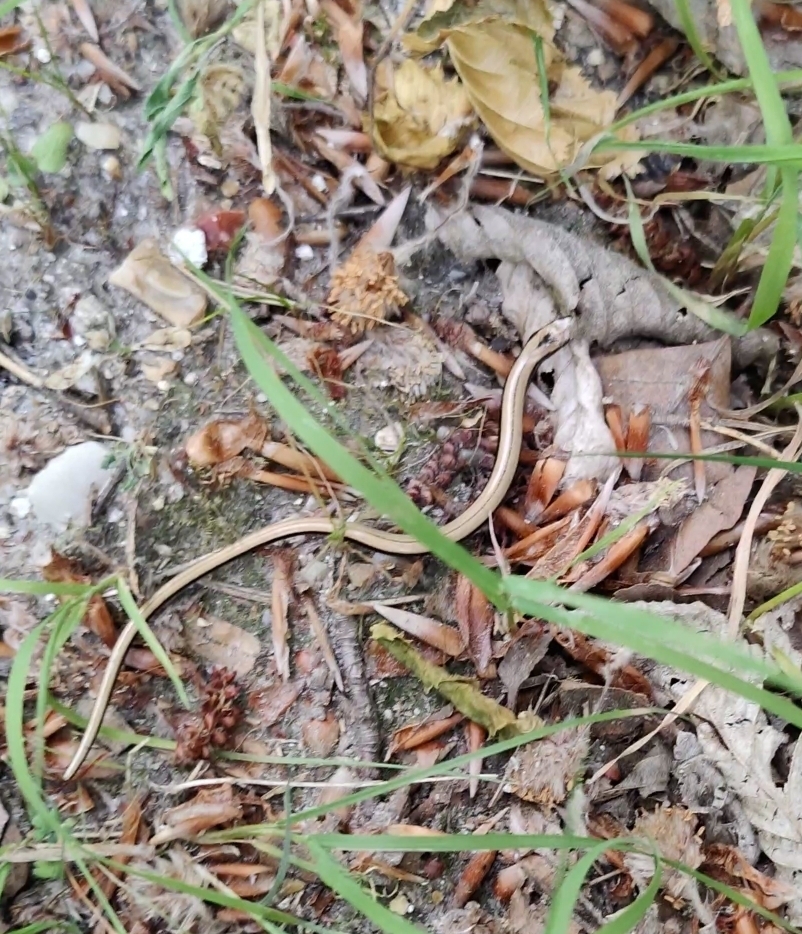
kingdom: Animalia
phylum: Chordata
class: Squamata
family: Anguidae
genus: Anguis
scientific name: Anguis fragilis
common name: Slow worm
